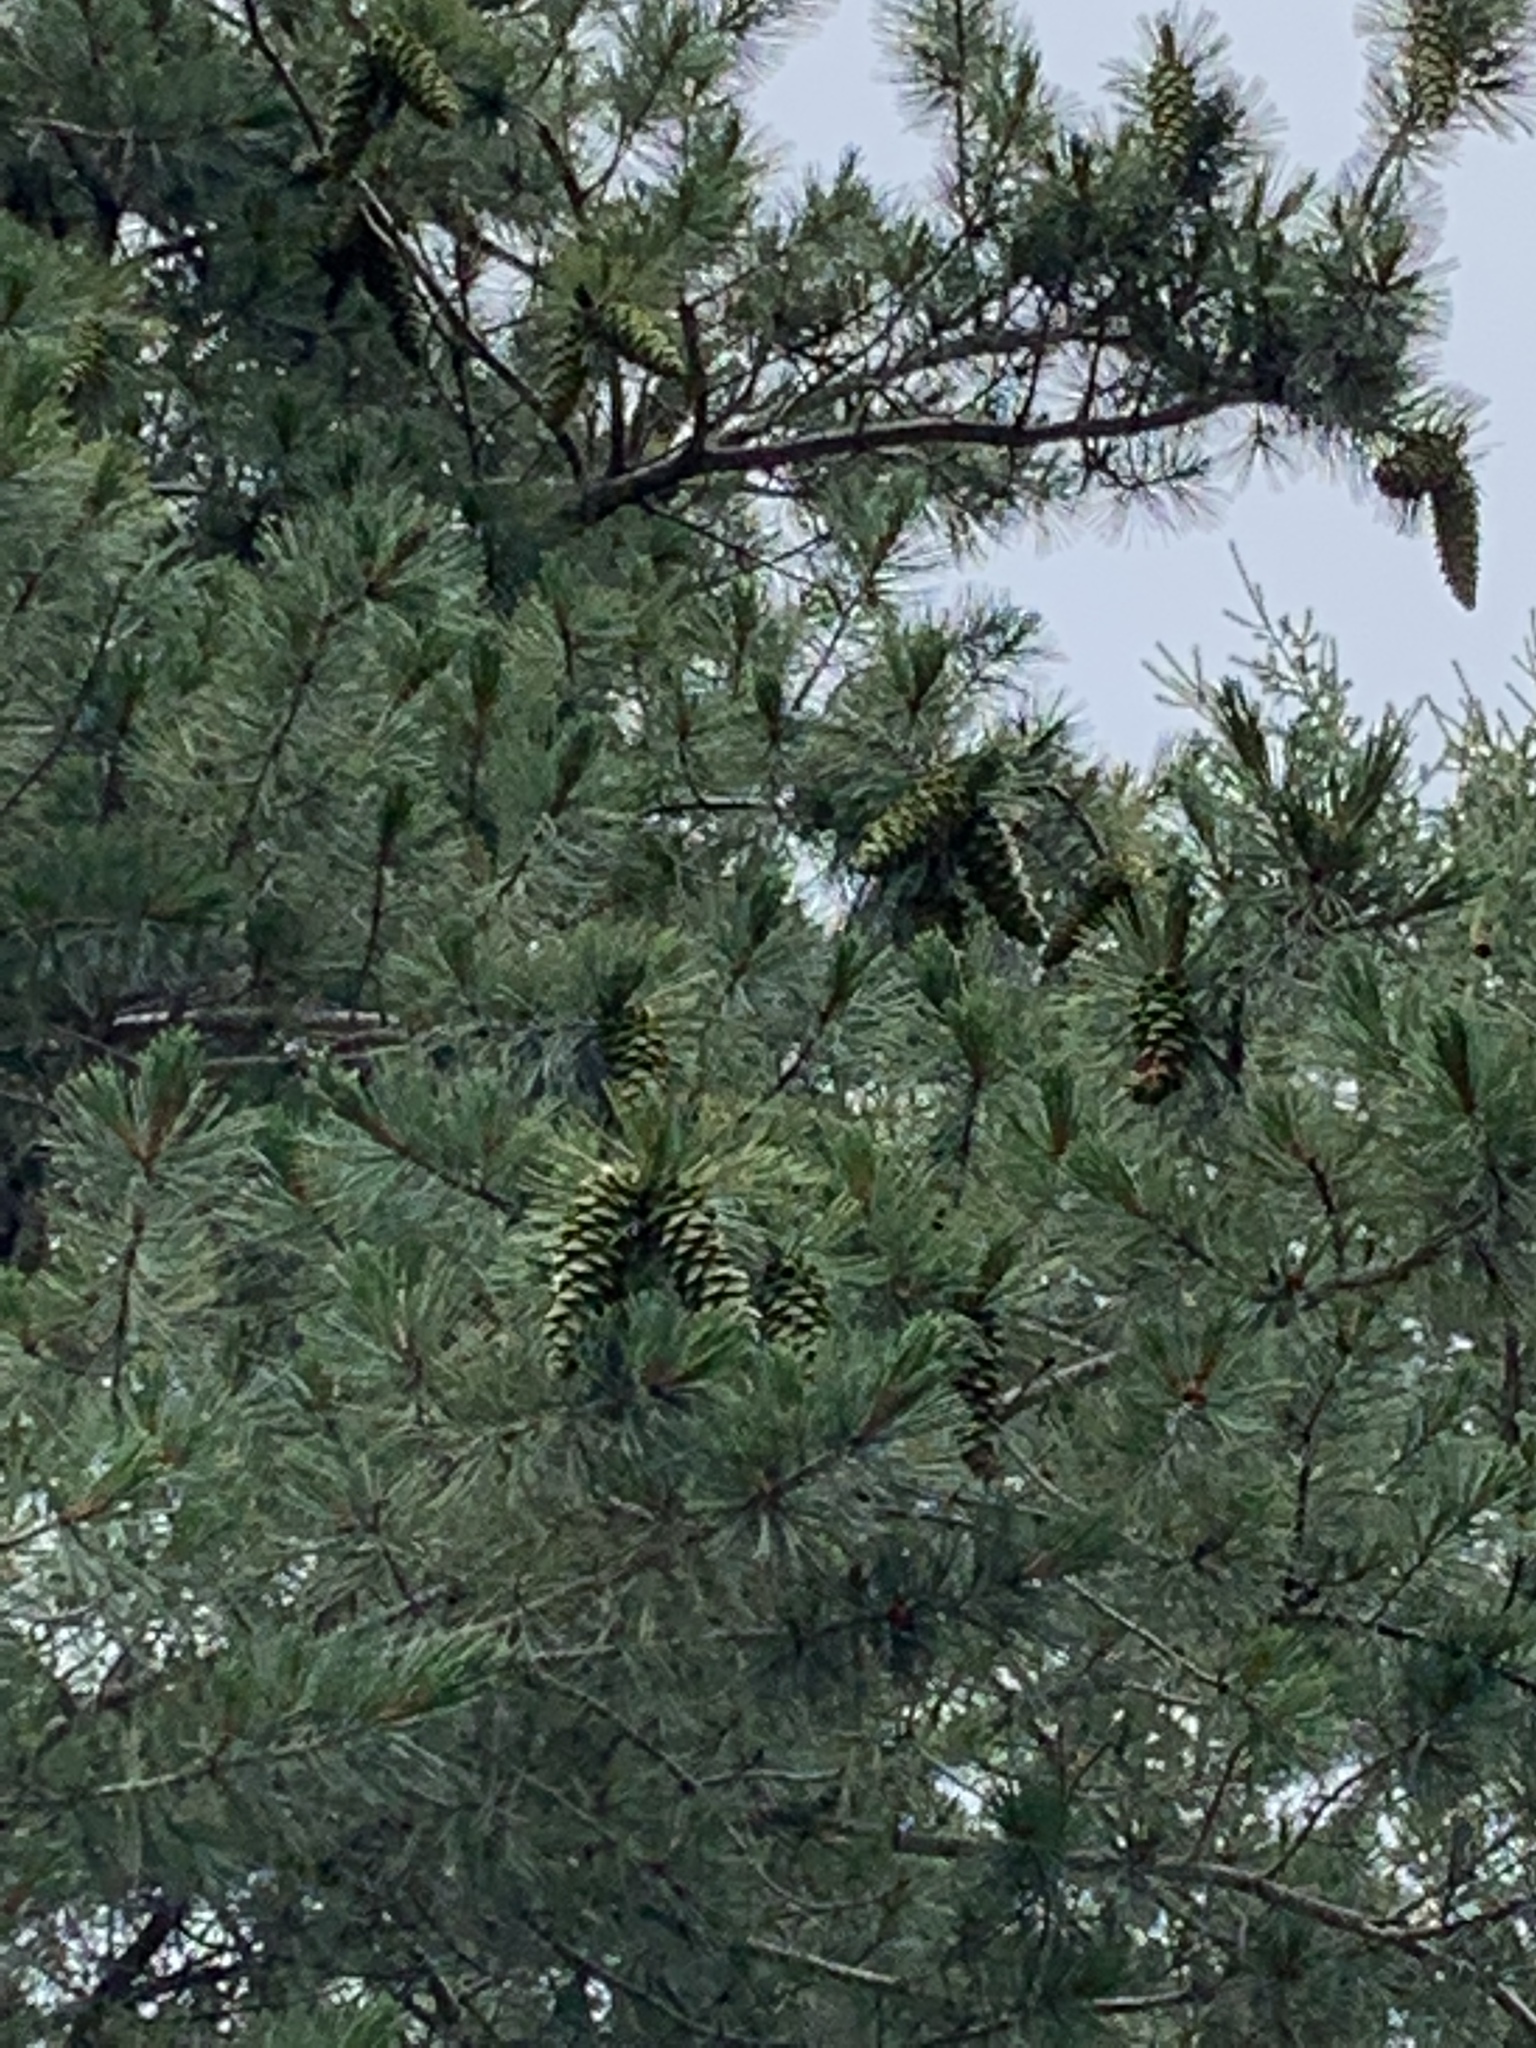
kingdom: Plantae
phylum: Tracheophyta
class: Pinopsida
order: Pinales
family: Pinaceae
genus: Pinus
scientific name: Pinus strobiformis
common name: Southwestern white pine
